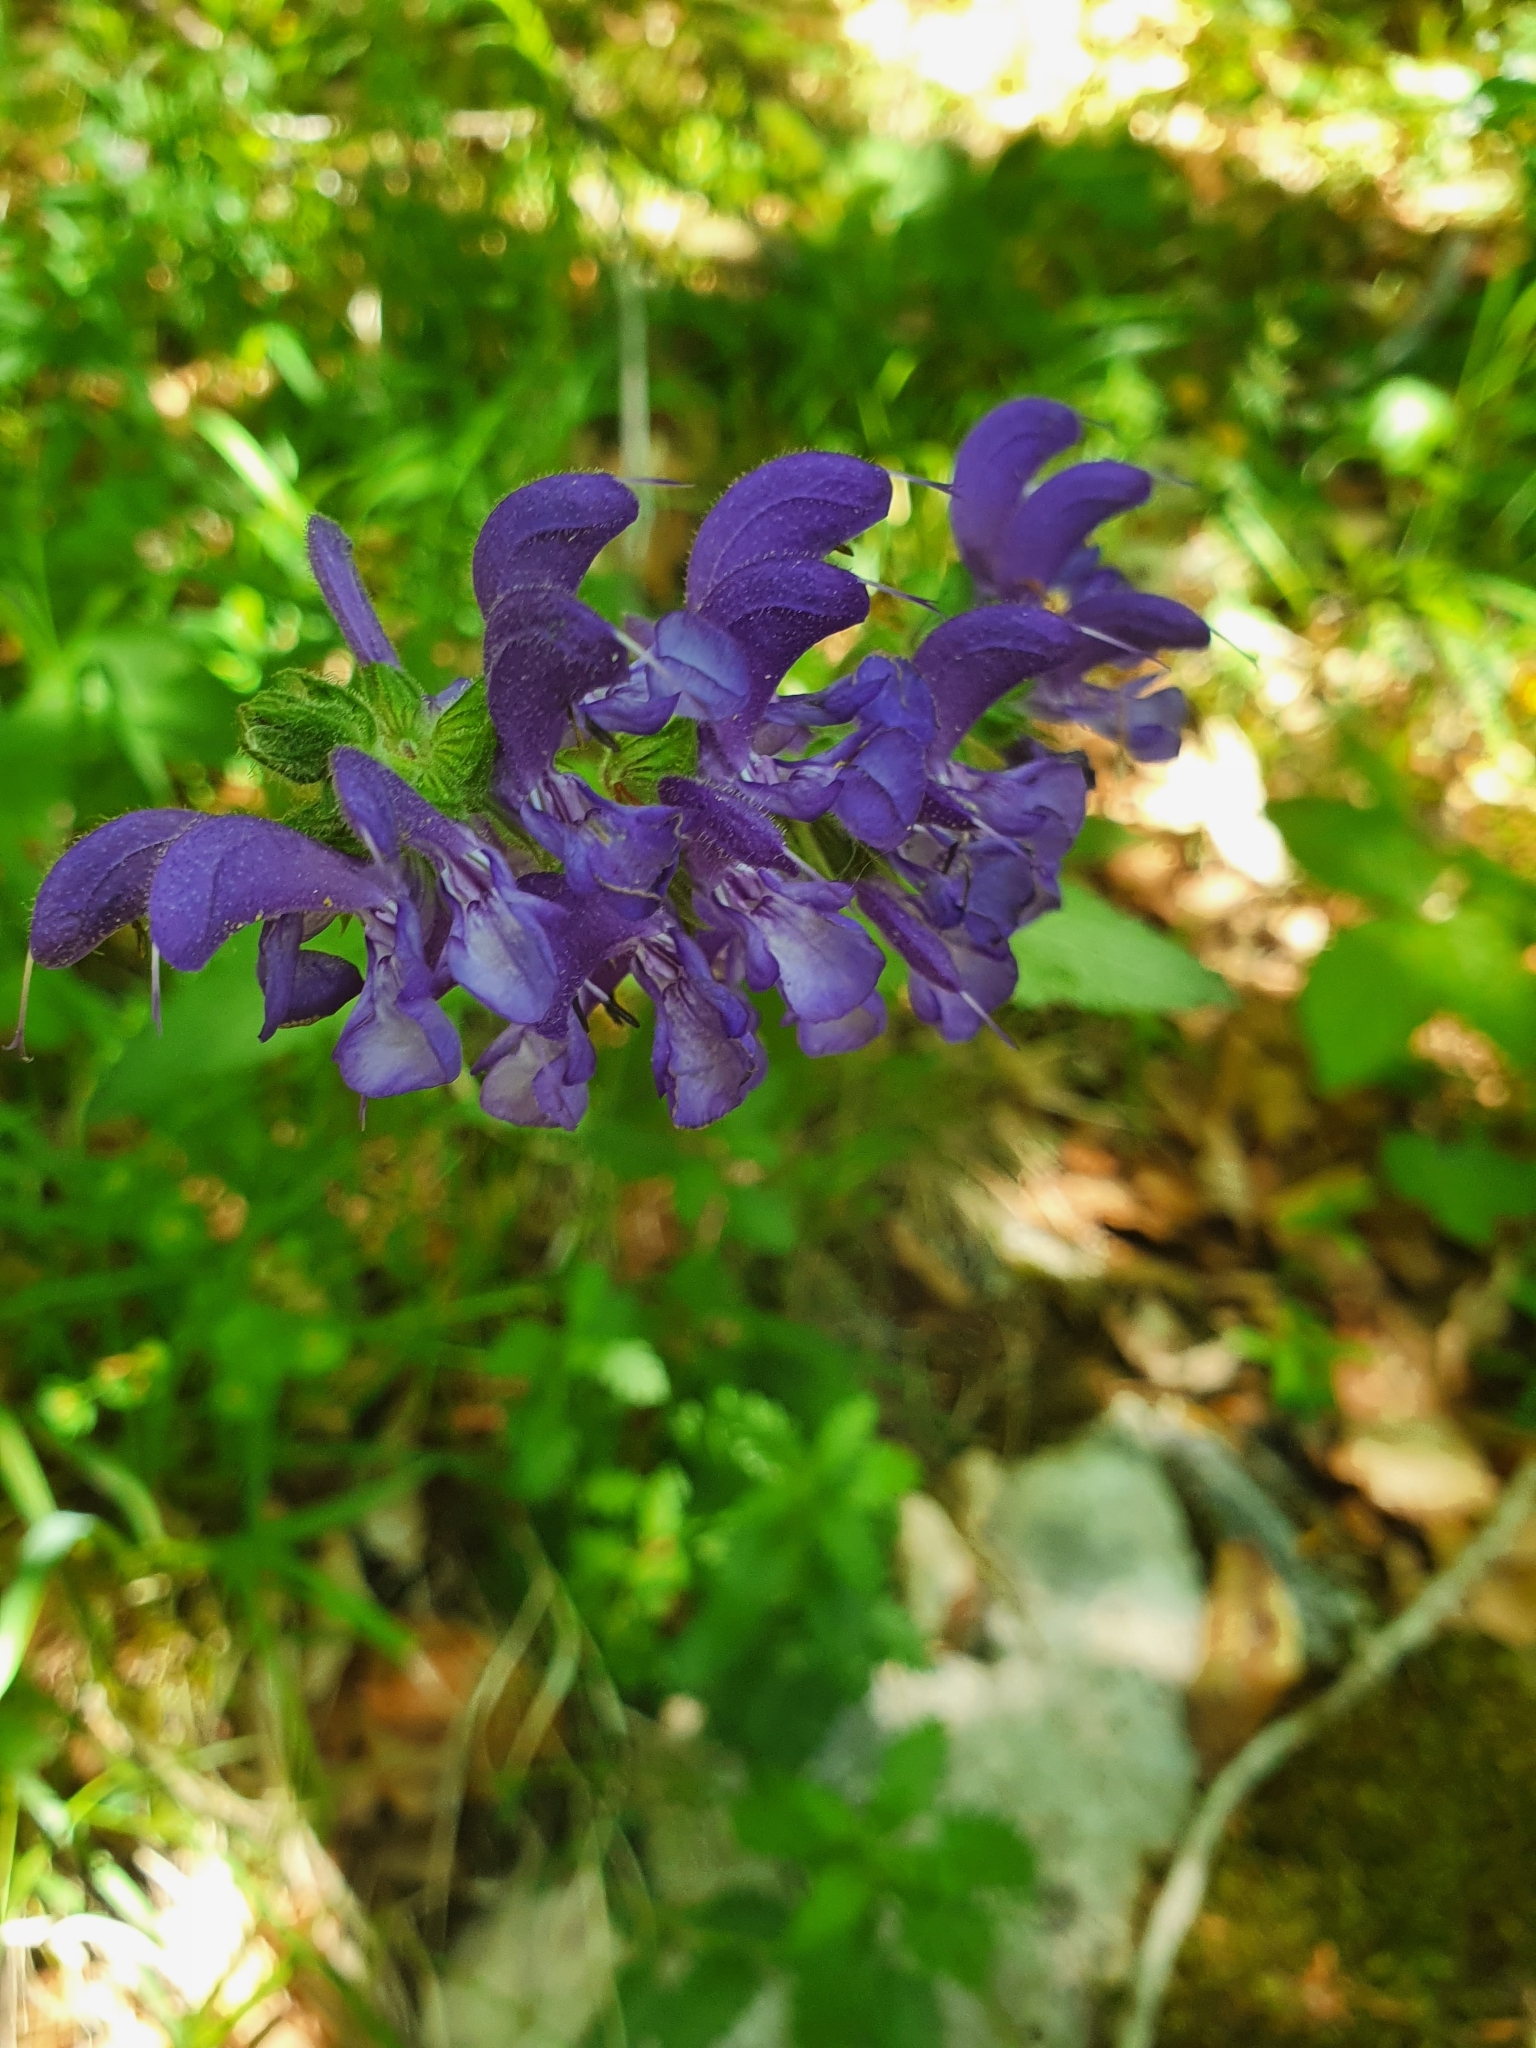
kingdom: Plantae
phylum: Tracheophyta
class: Magnoliopsida
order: Lamiales
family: Lamiaceae
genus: Salvia
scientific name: Salvia pratensis
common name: Meadow sage
